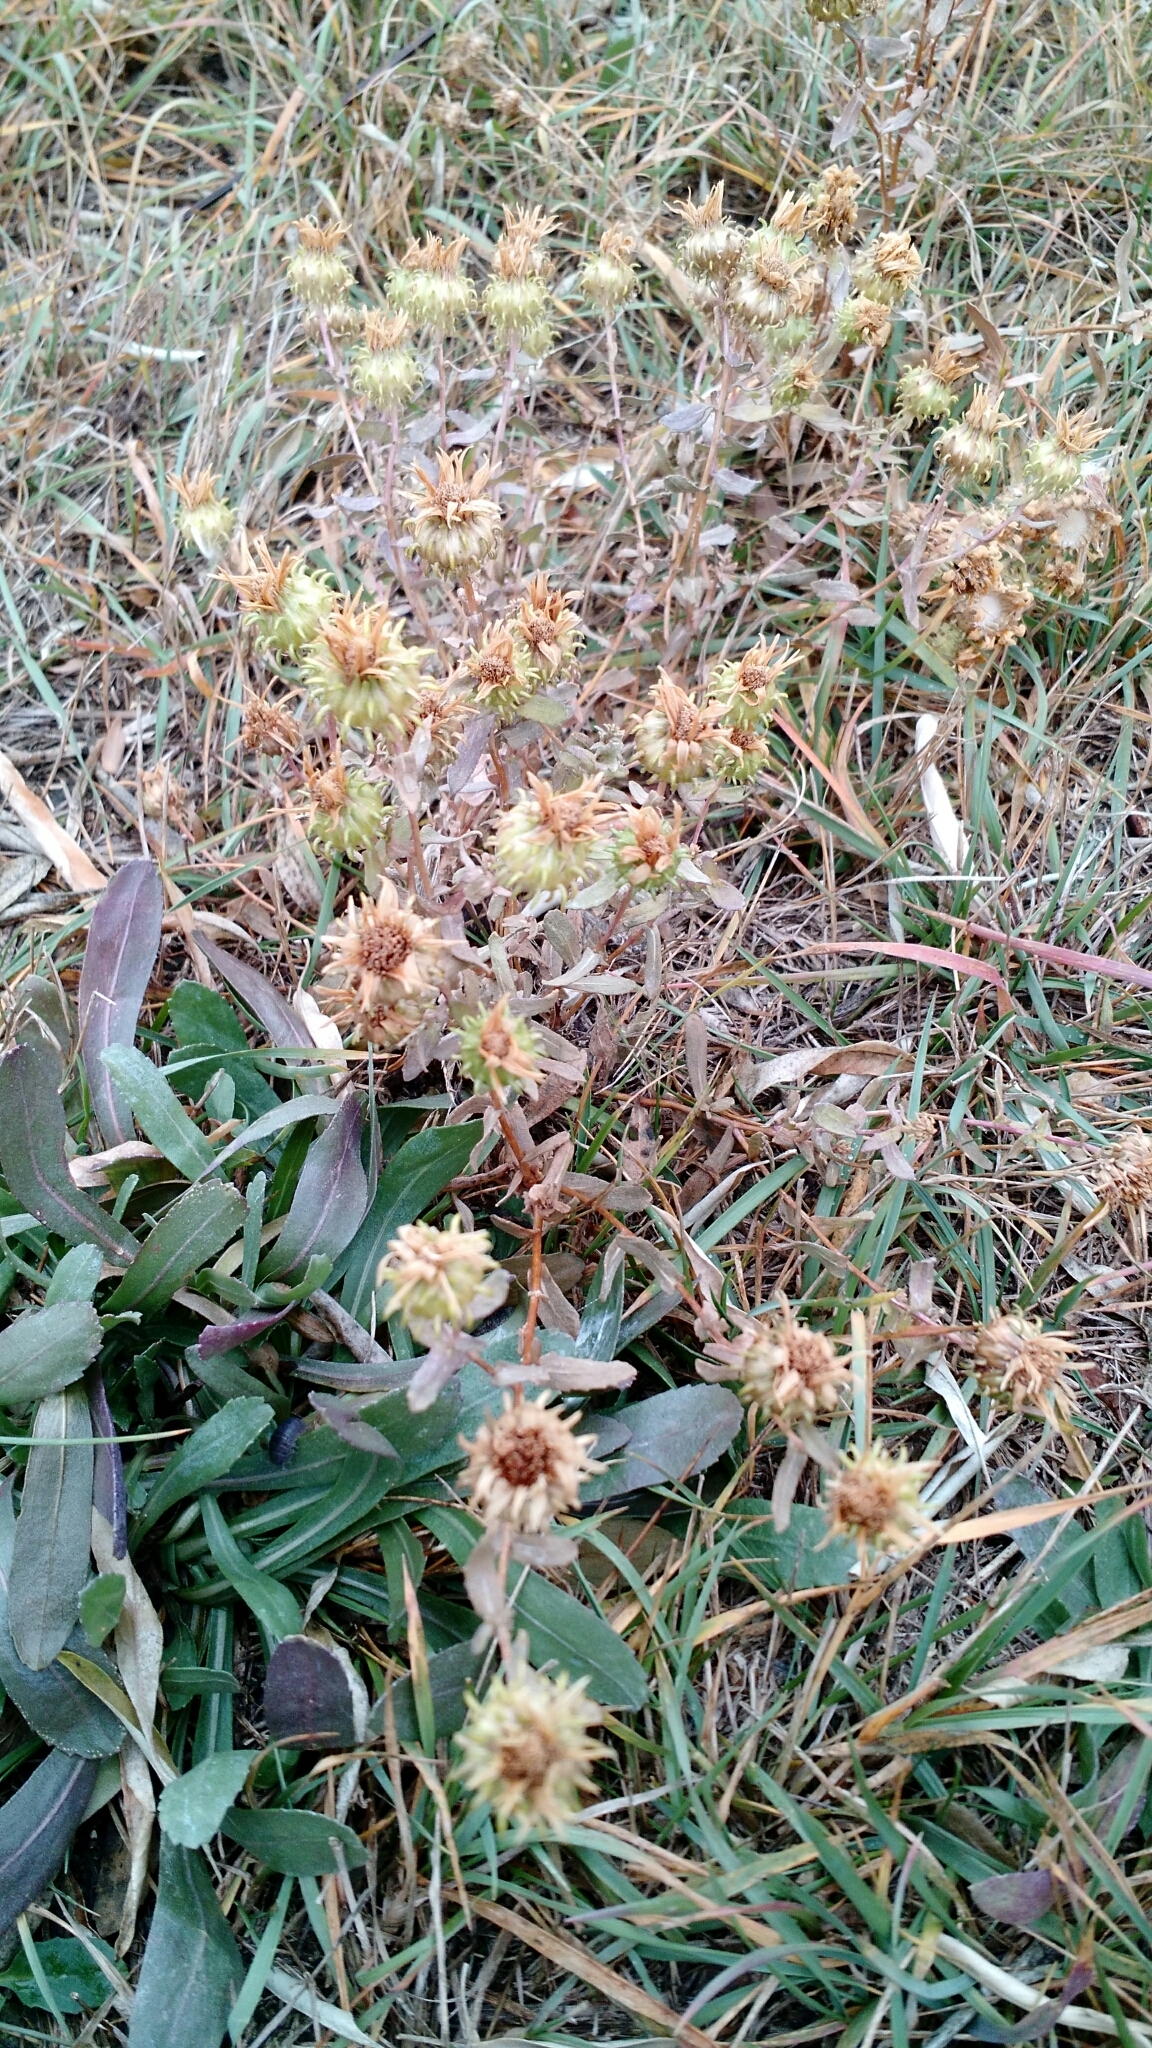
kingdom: Plantae
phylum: Tracheophyta
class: Magnoliopsida
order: Asterales
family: Asteraceae
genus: Grindelia
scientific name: Grindelia squarrosa
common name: Curly-cup gumweed
